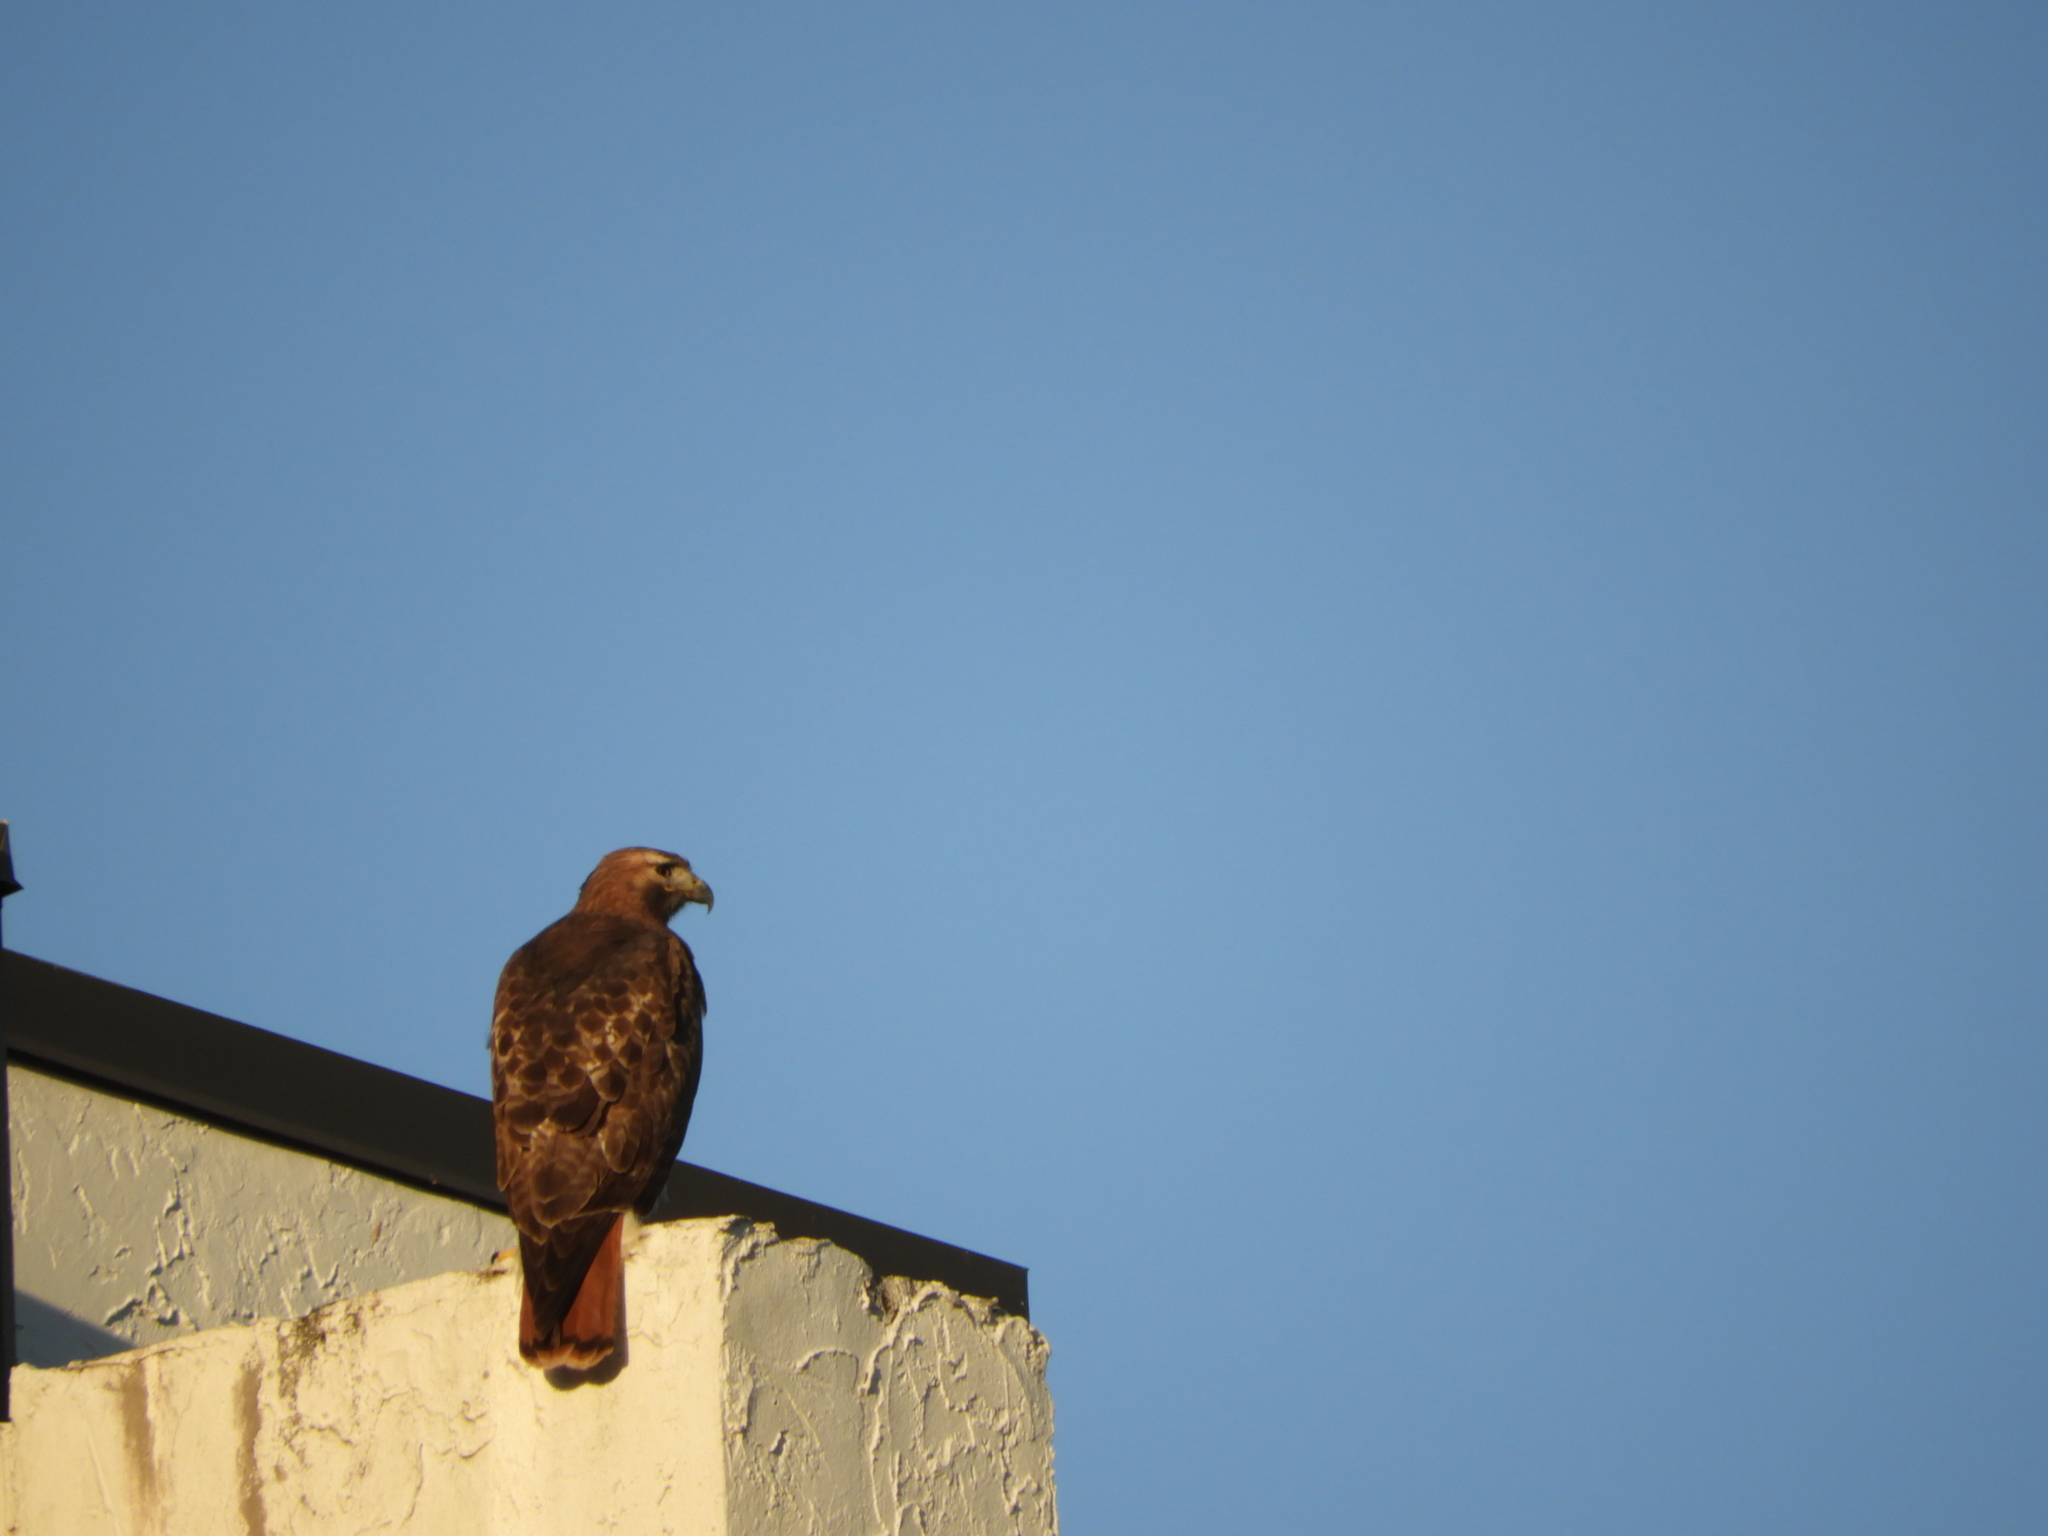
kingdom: Animalia
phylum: Chordata
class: Aves
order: Accipitriformes
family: Accipitridae
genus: Buteo
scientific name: Buteo jamaicensis
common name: Red-tailed hawk
